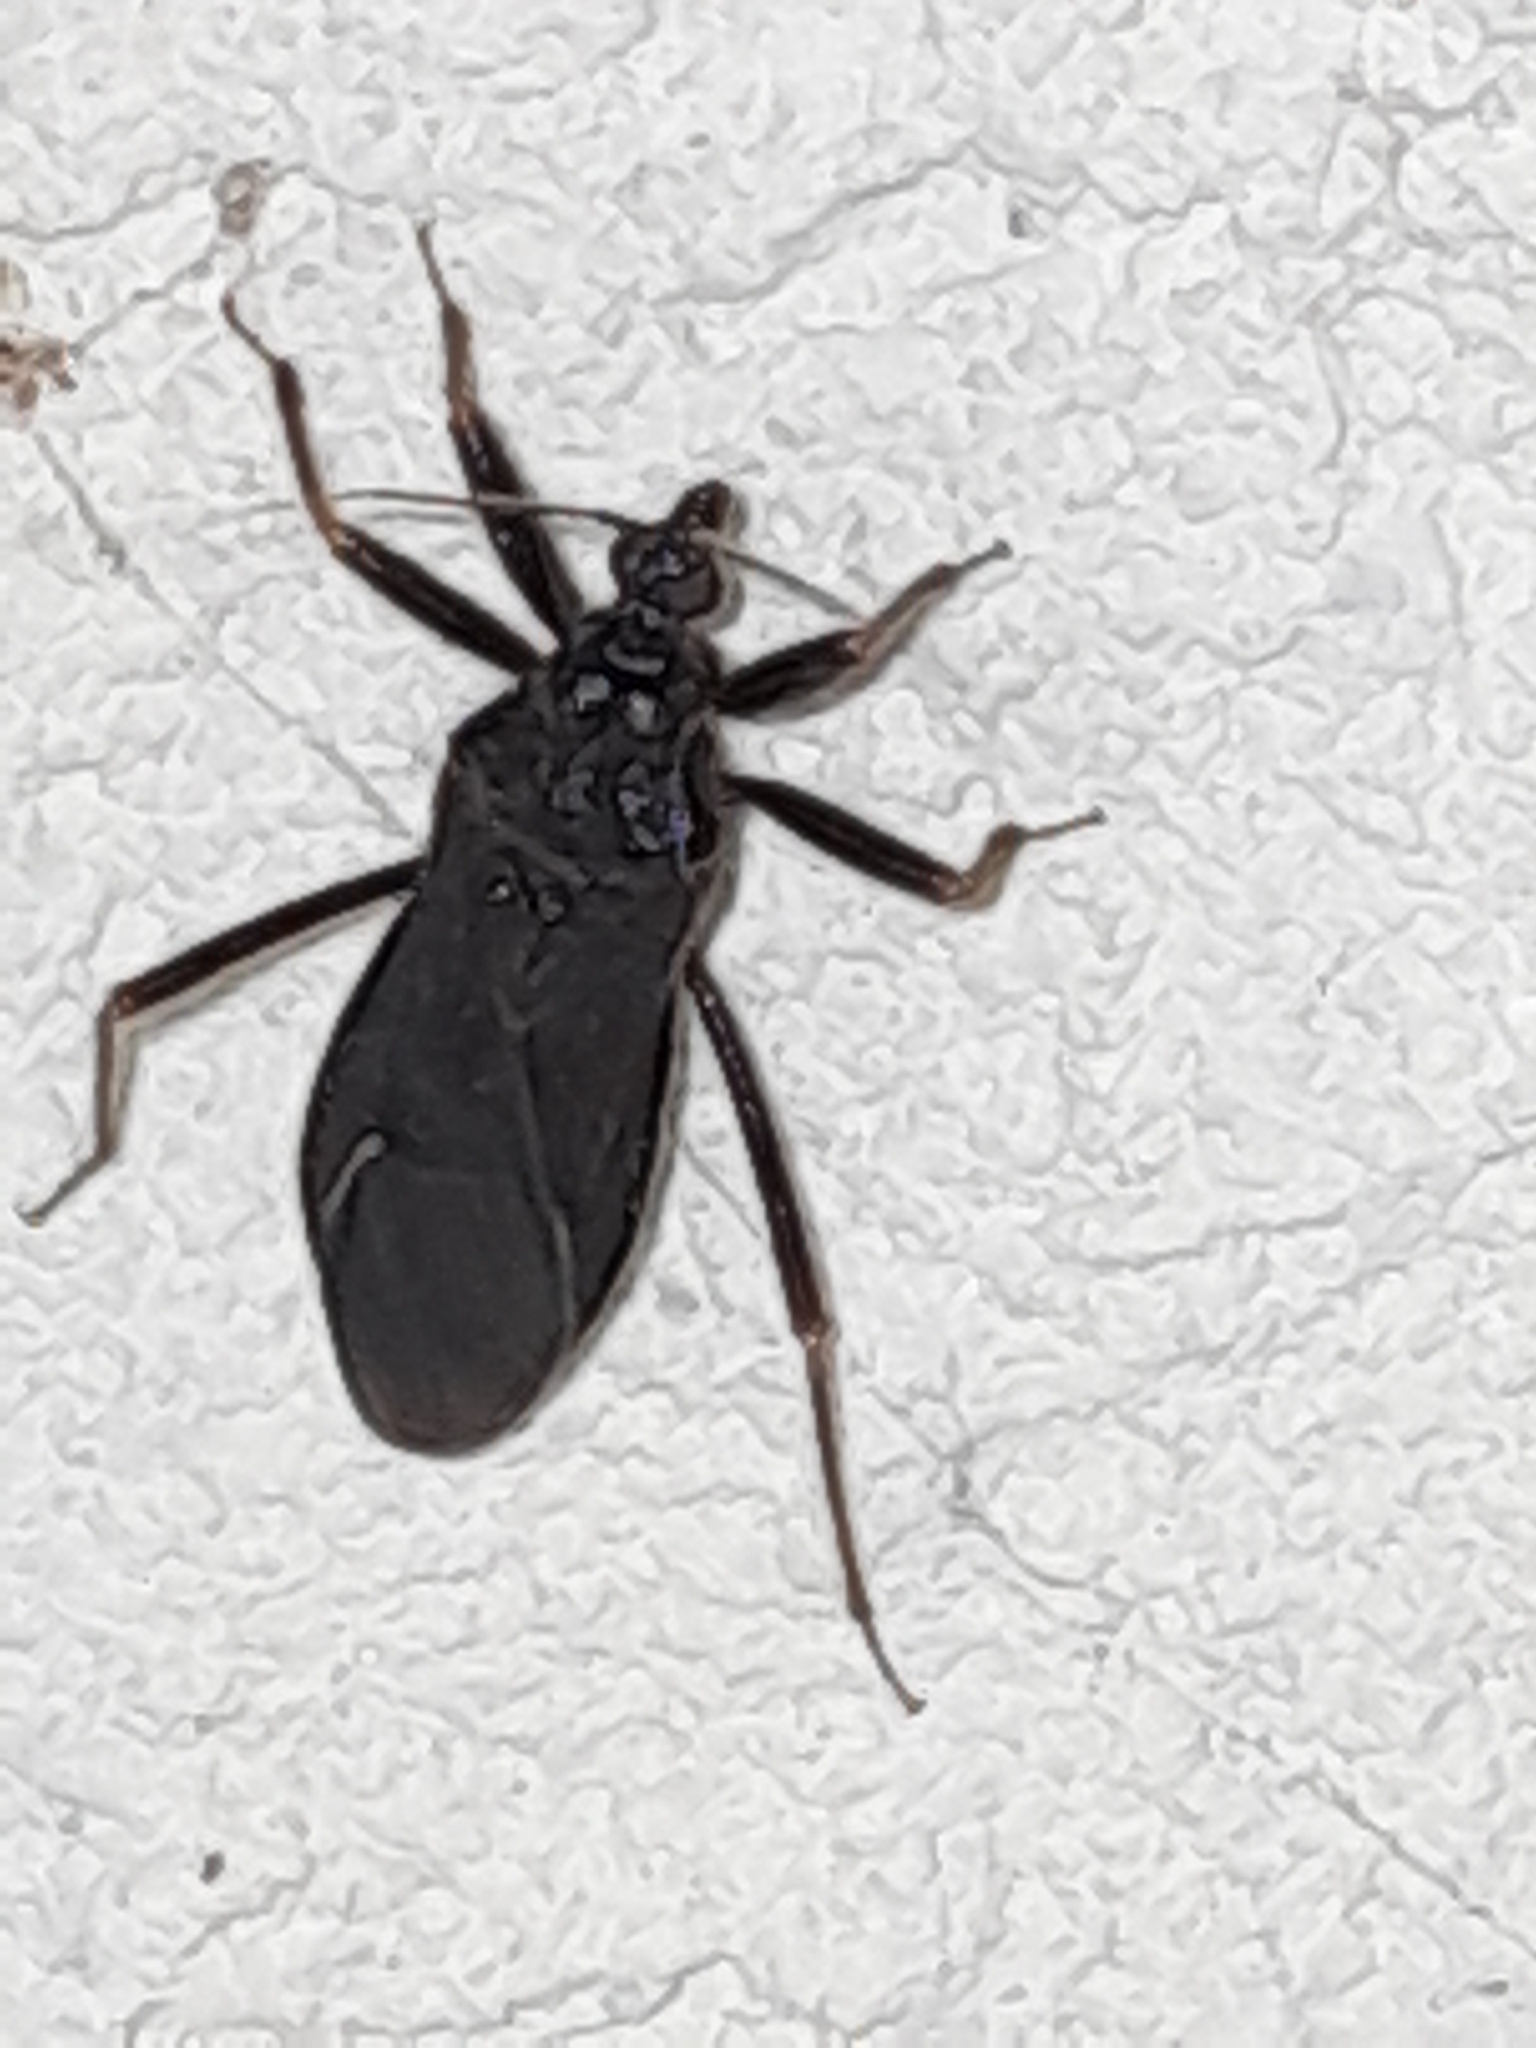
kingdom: Animalia
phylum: Arthropoda
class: Insecta
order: Hemiptera
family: Reduviidae
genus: Reduvius
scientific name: Reduvius personatus
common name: Masked hunter
